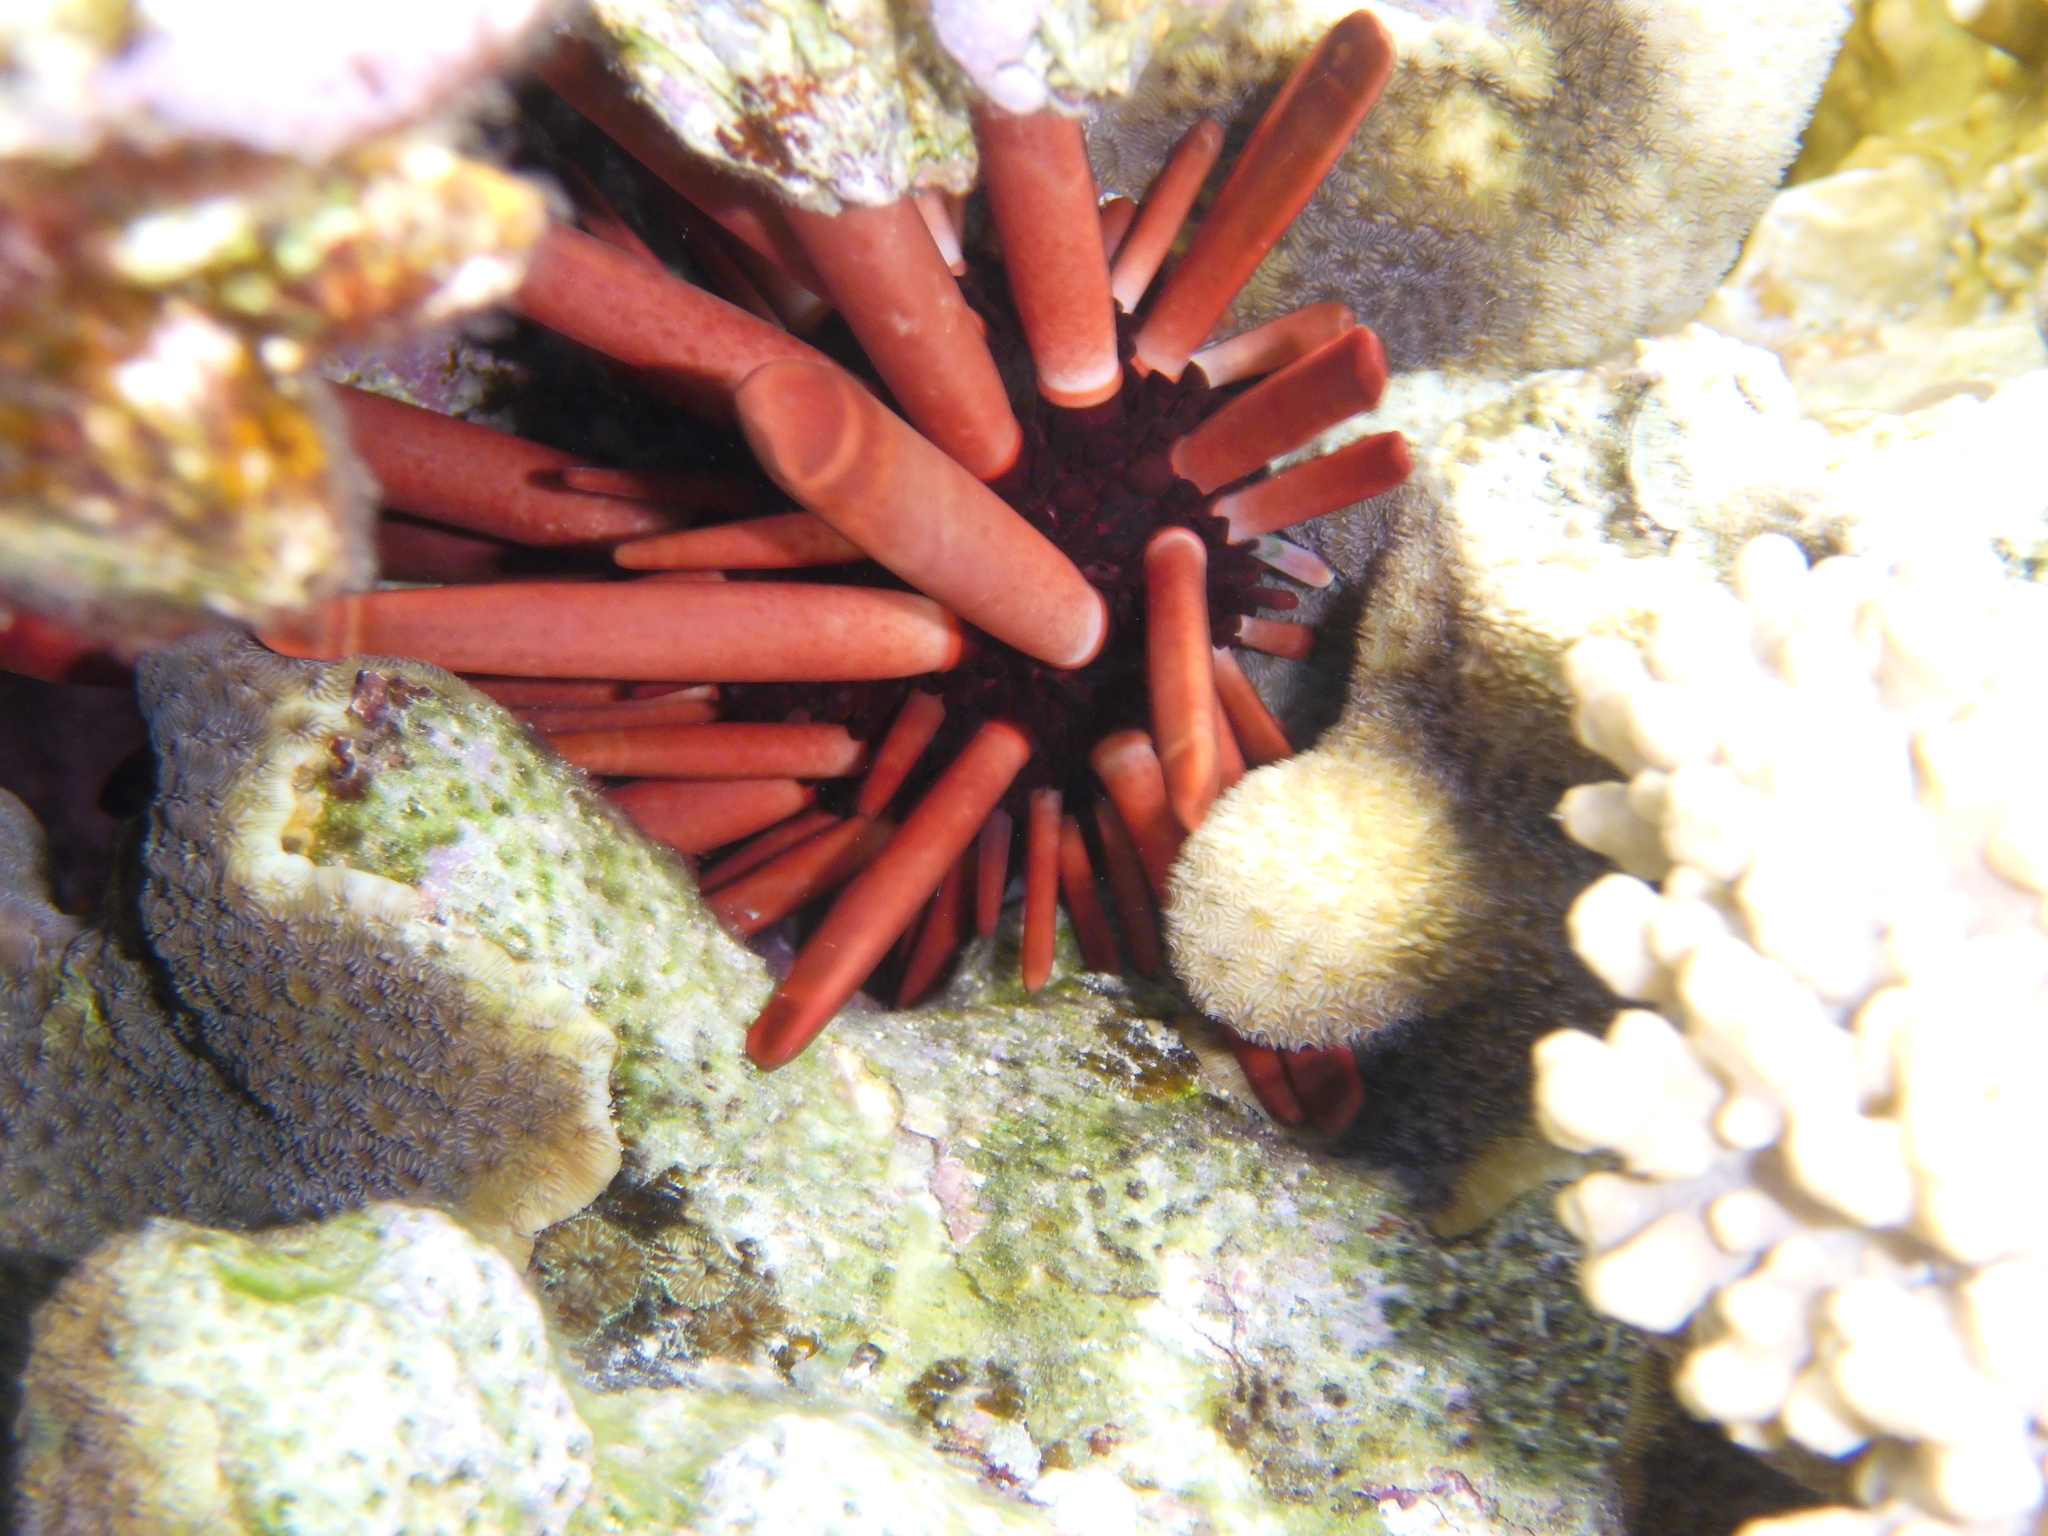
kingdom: Animalia
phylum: Echinodermata
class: Echinoidea
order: Camarodonta
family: Echinometridae
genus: Heterocentrotus
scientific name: Heterocentrotus mamillatus
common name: Slate pencil urchin
